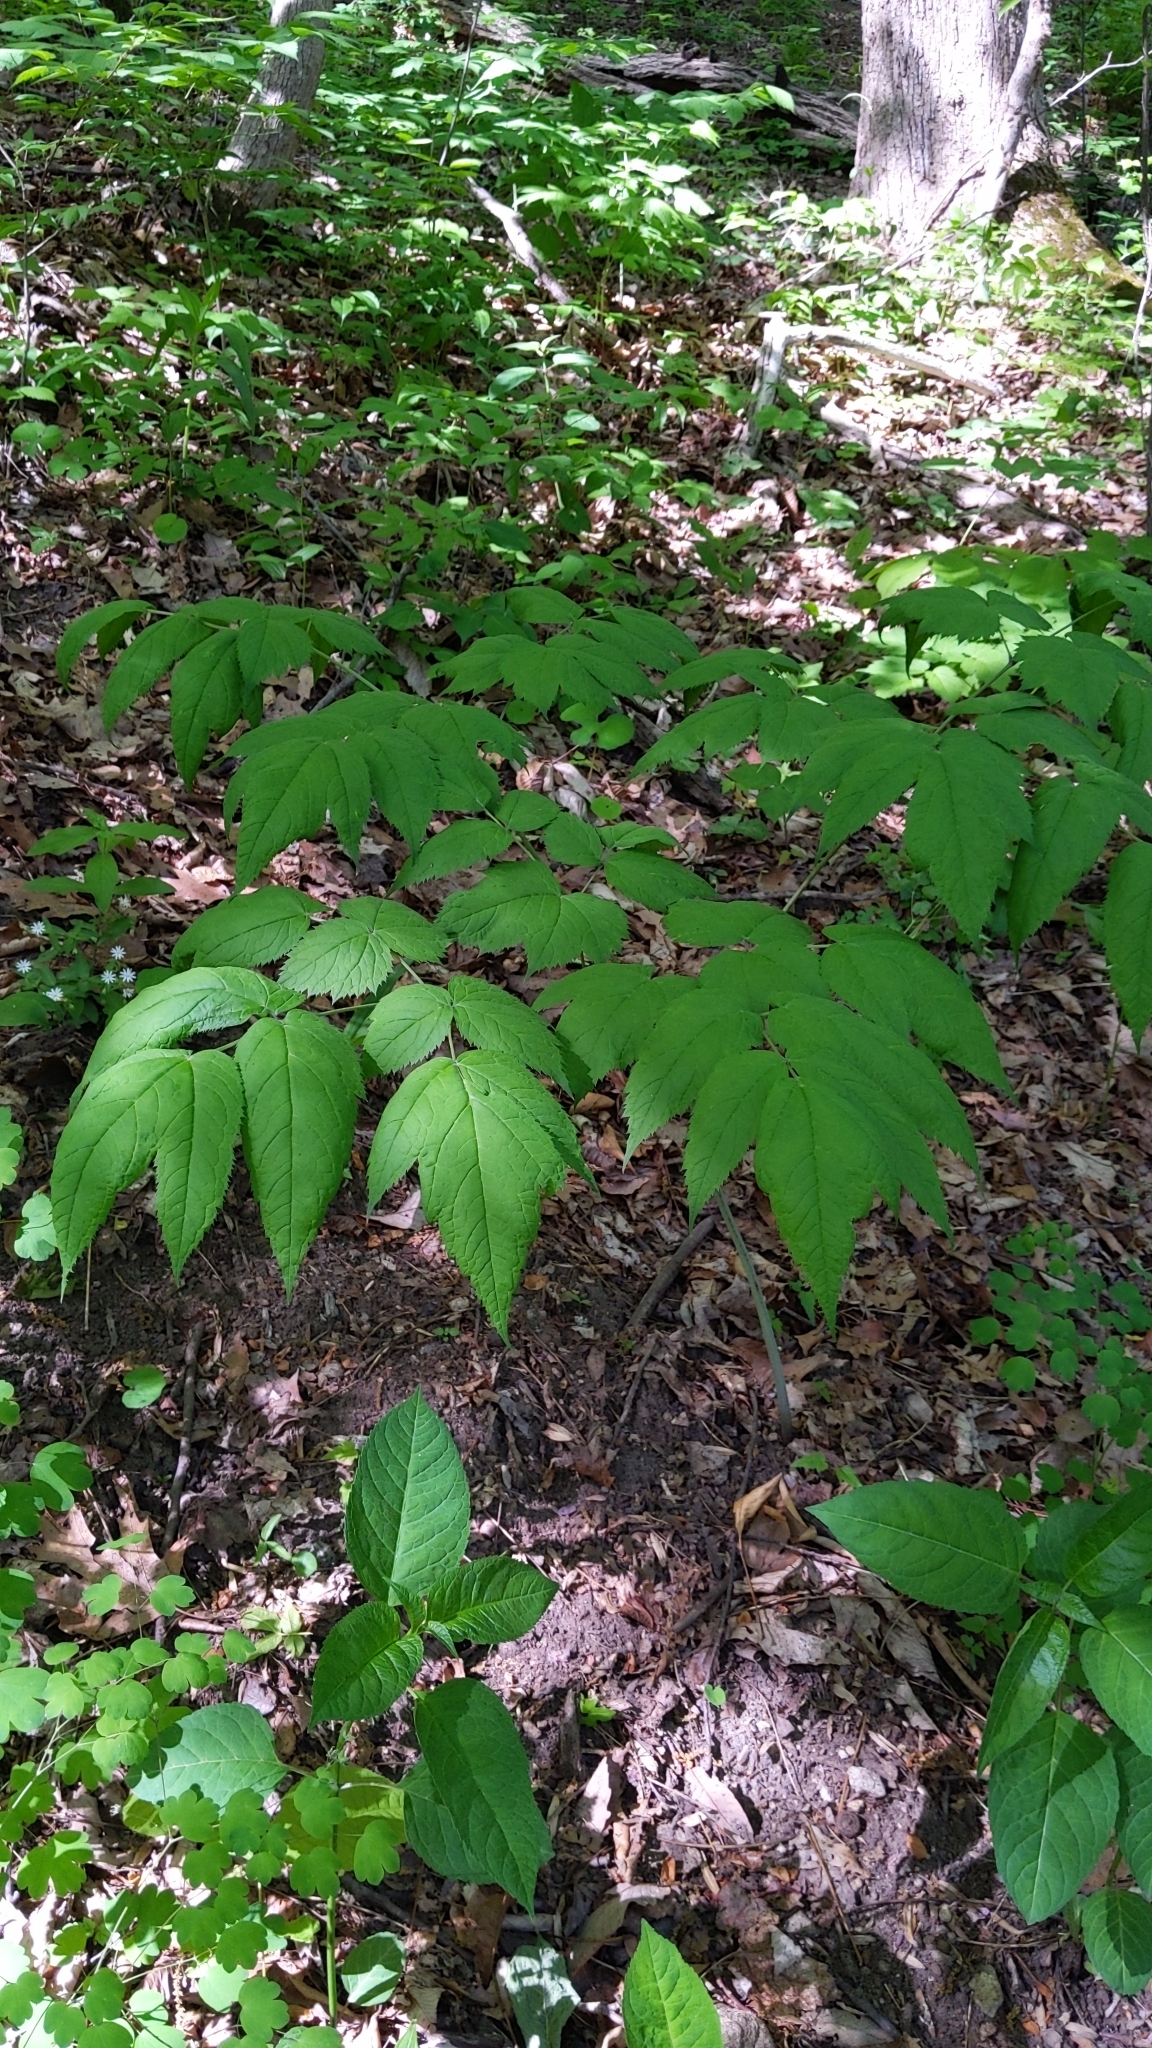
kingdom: Plantae
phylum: Tracheophyta
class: Magnoliopsida
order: Ranunculales
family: Ranunculaceae
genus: Actaea
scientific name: Actaea racemosa
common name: Black cohosh
